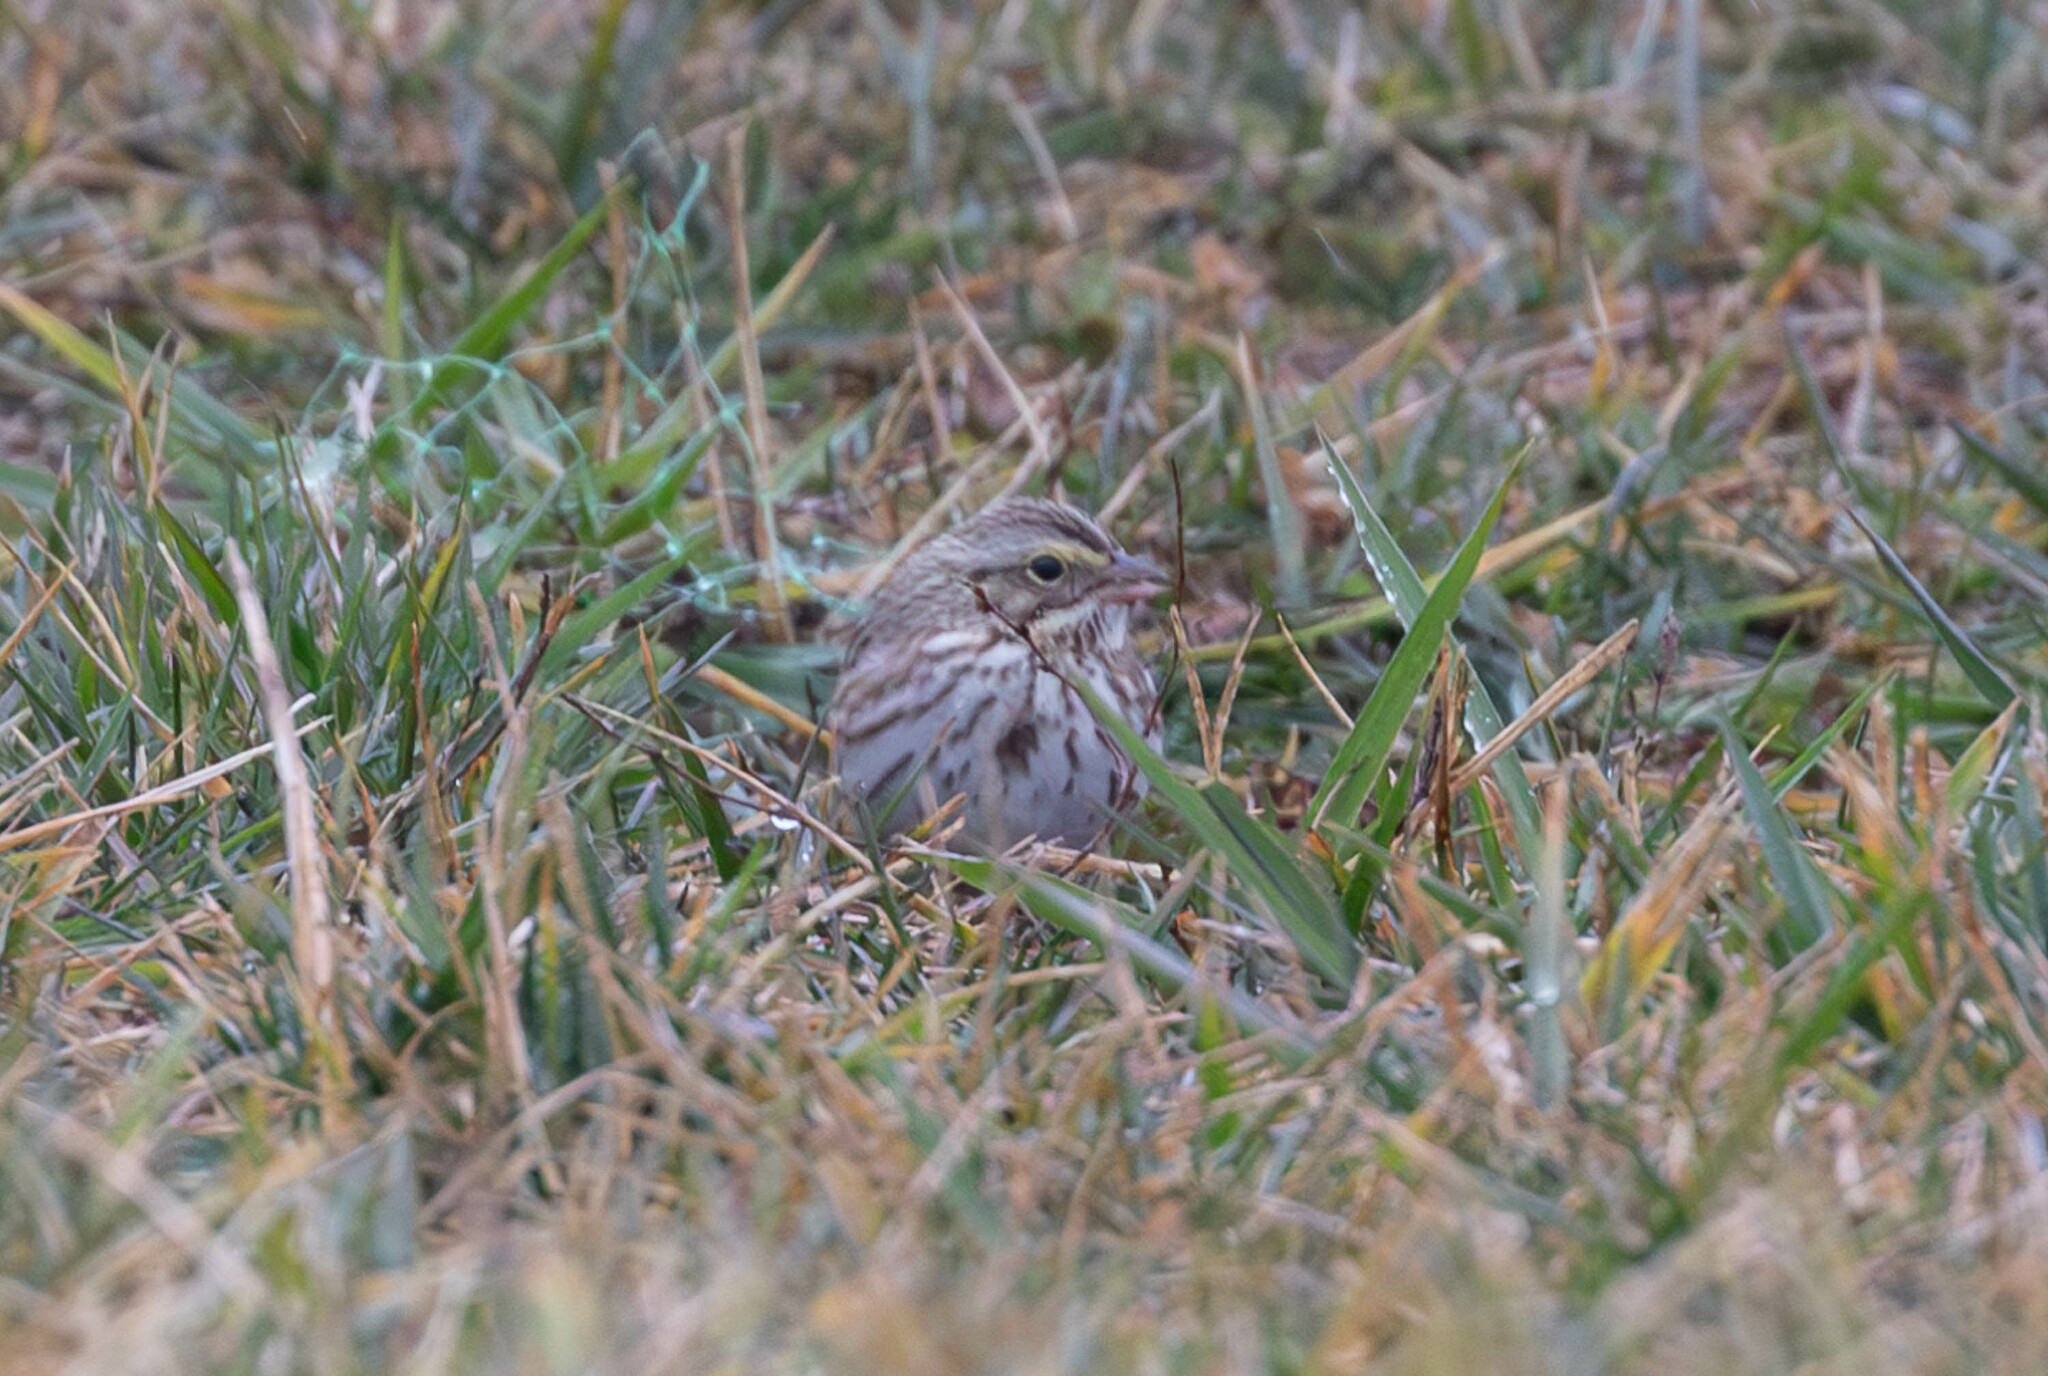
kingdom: Animalia
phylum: Chordata
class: Aves
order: Passeriformes
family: Passerellidae
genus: Passerculus
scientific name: Passerculus sandwichensis
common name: Savannah sparrow
